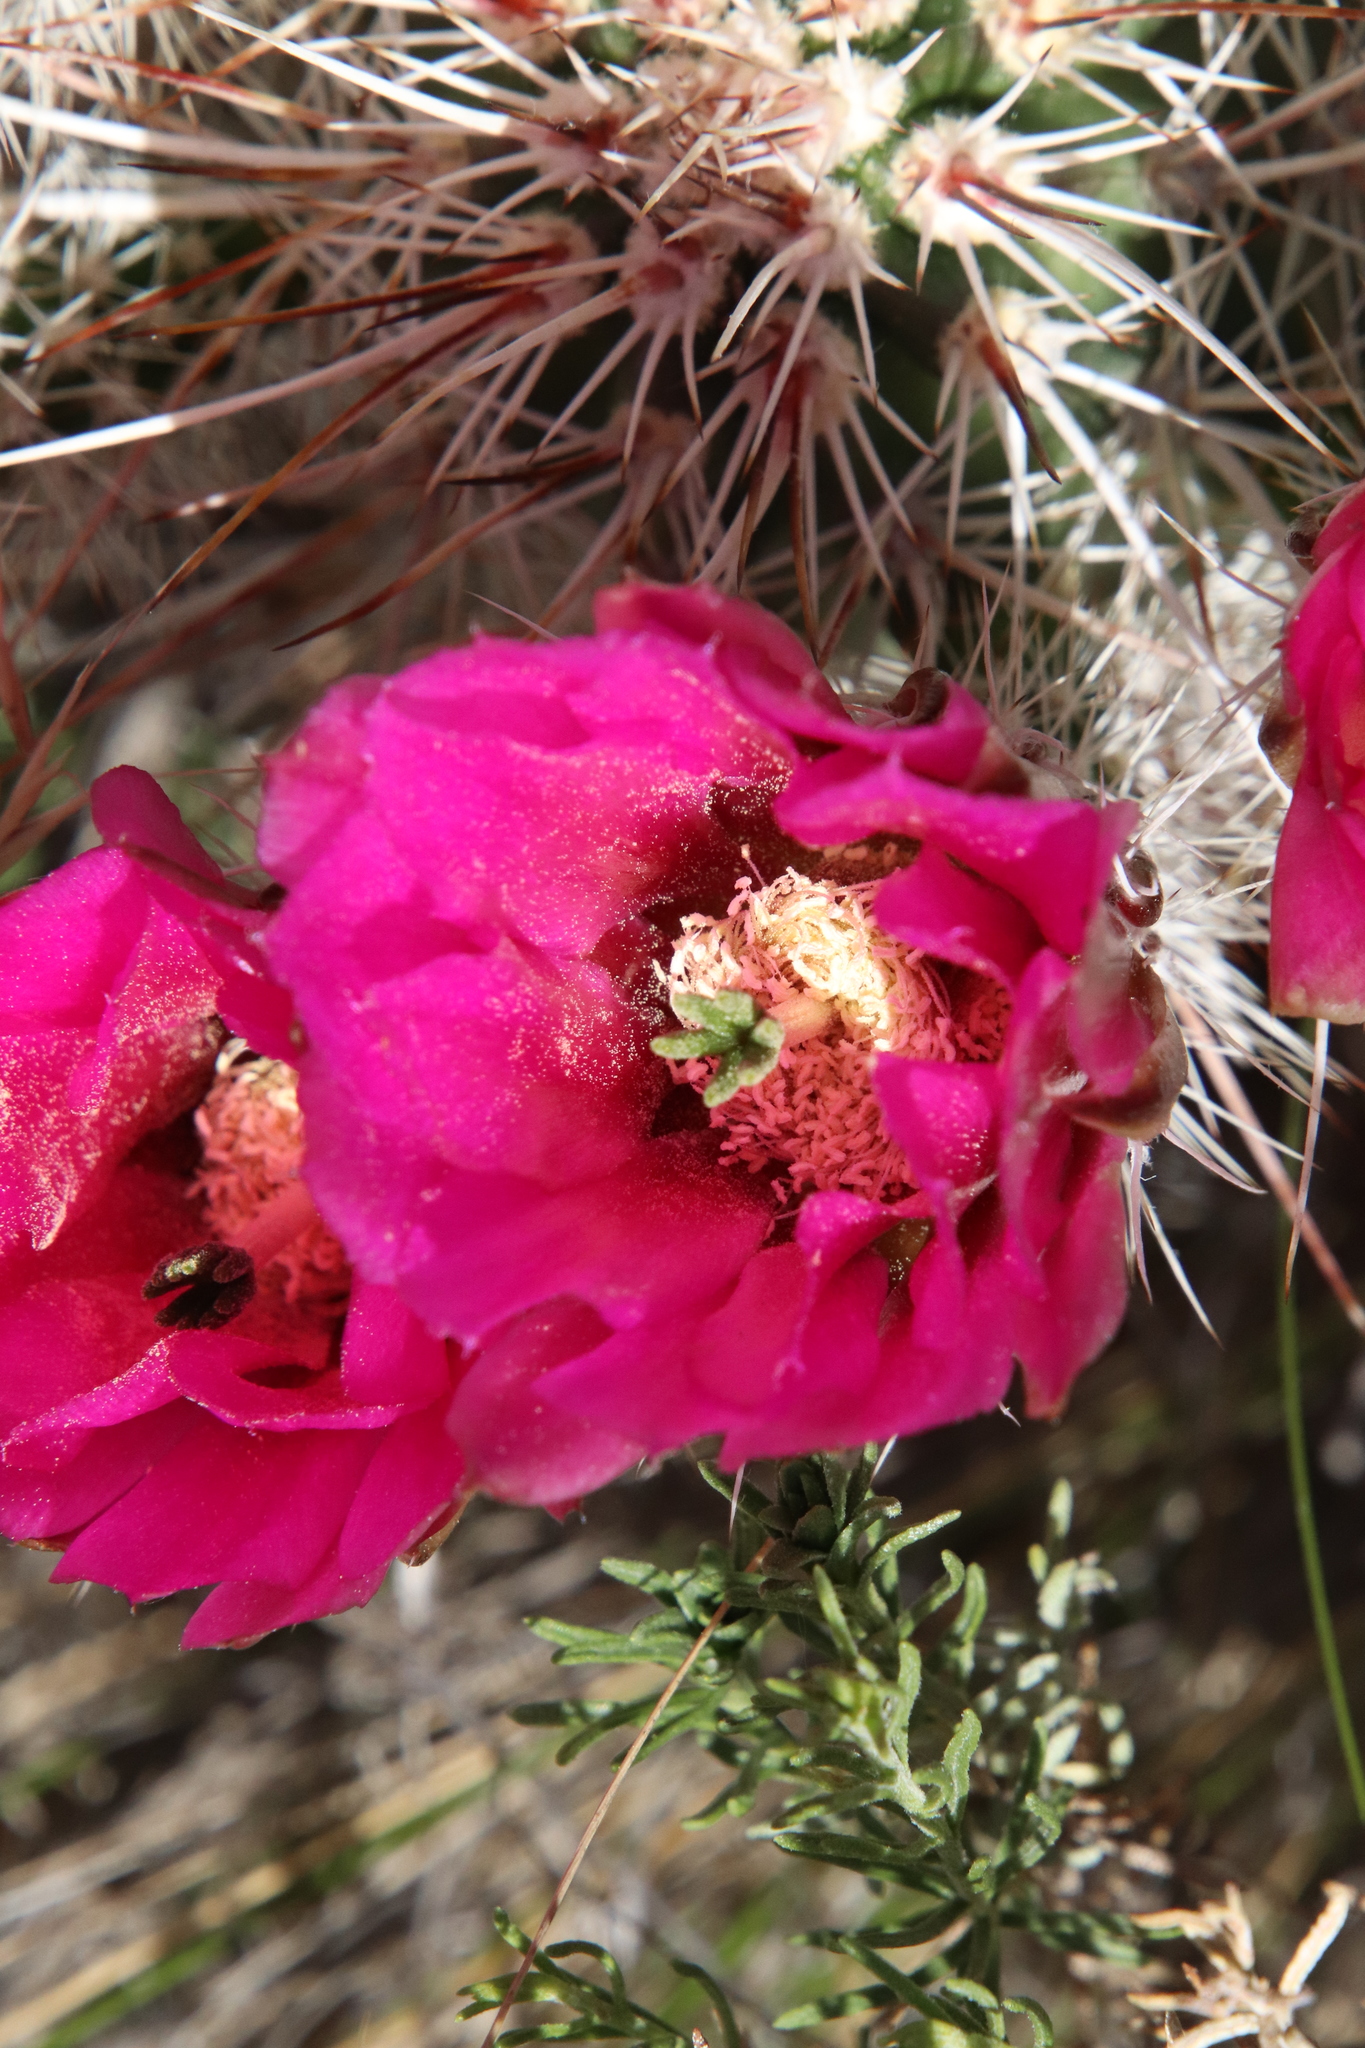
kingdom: Plantae
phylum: Tracheophyta
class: Magnoliopsida
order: Caryophyllales
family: Cactaceae
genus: Echinocereus
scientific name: Echinocereus engelmannii
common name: Engelmann's hedgehog cactus
